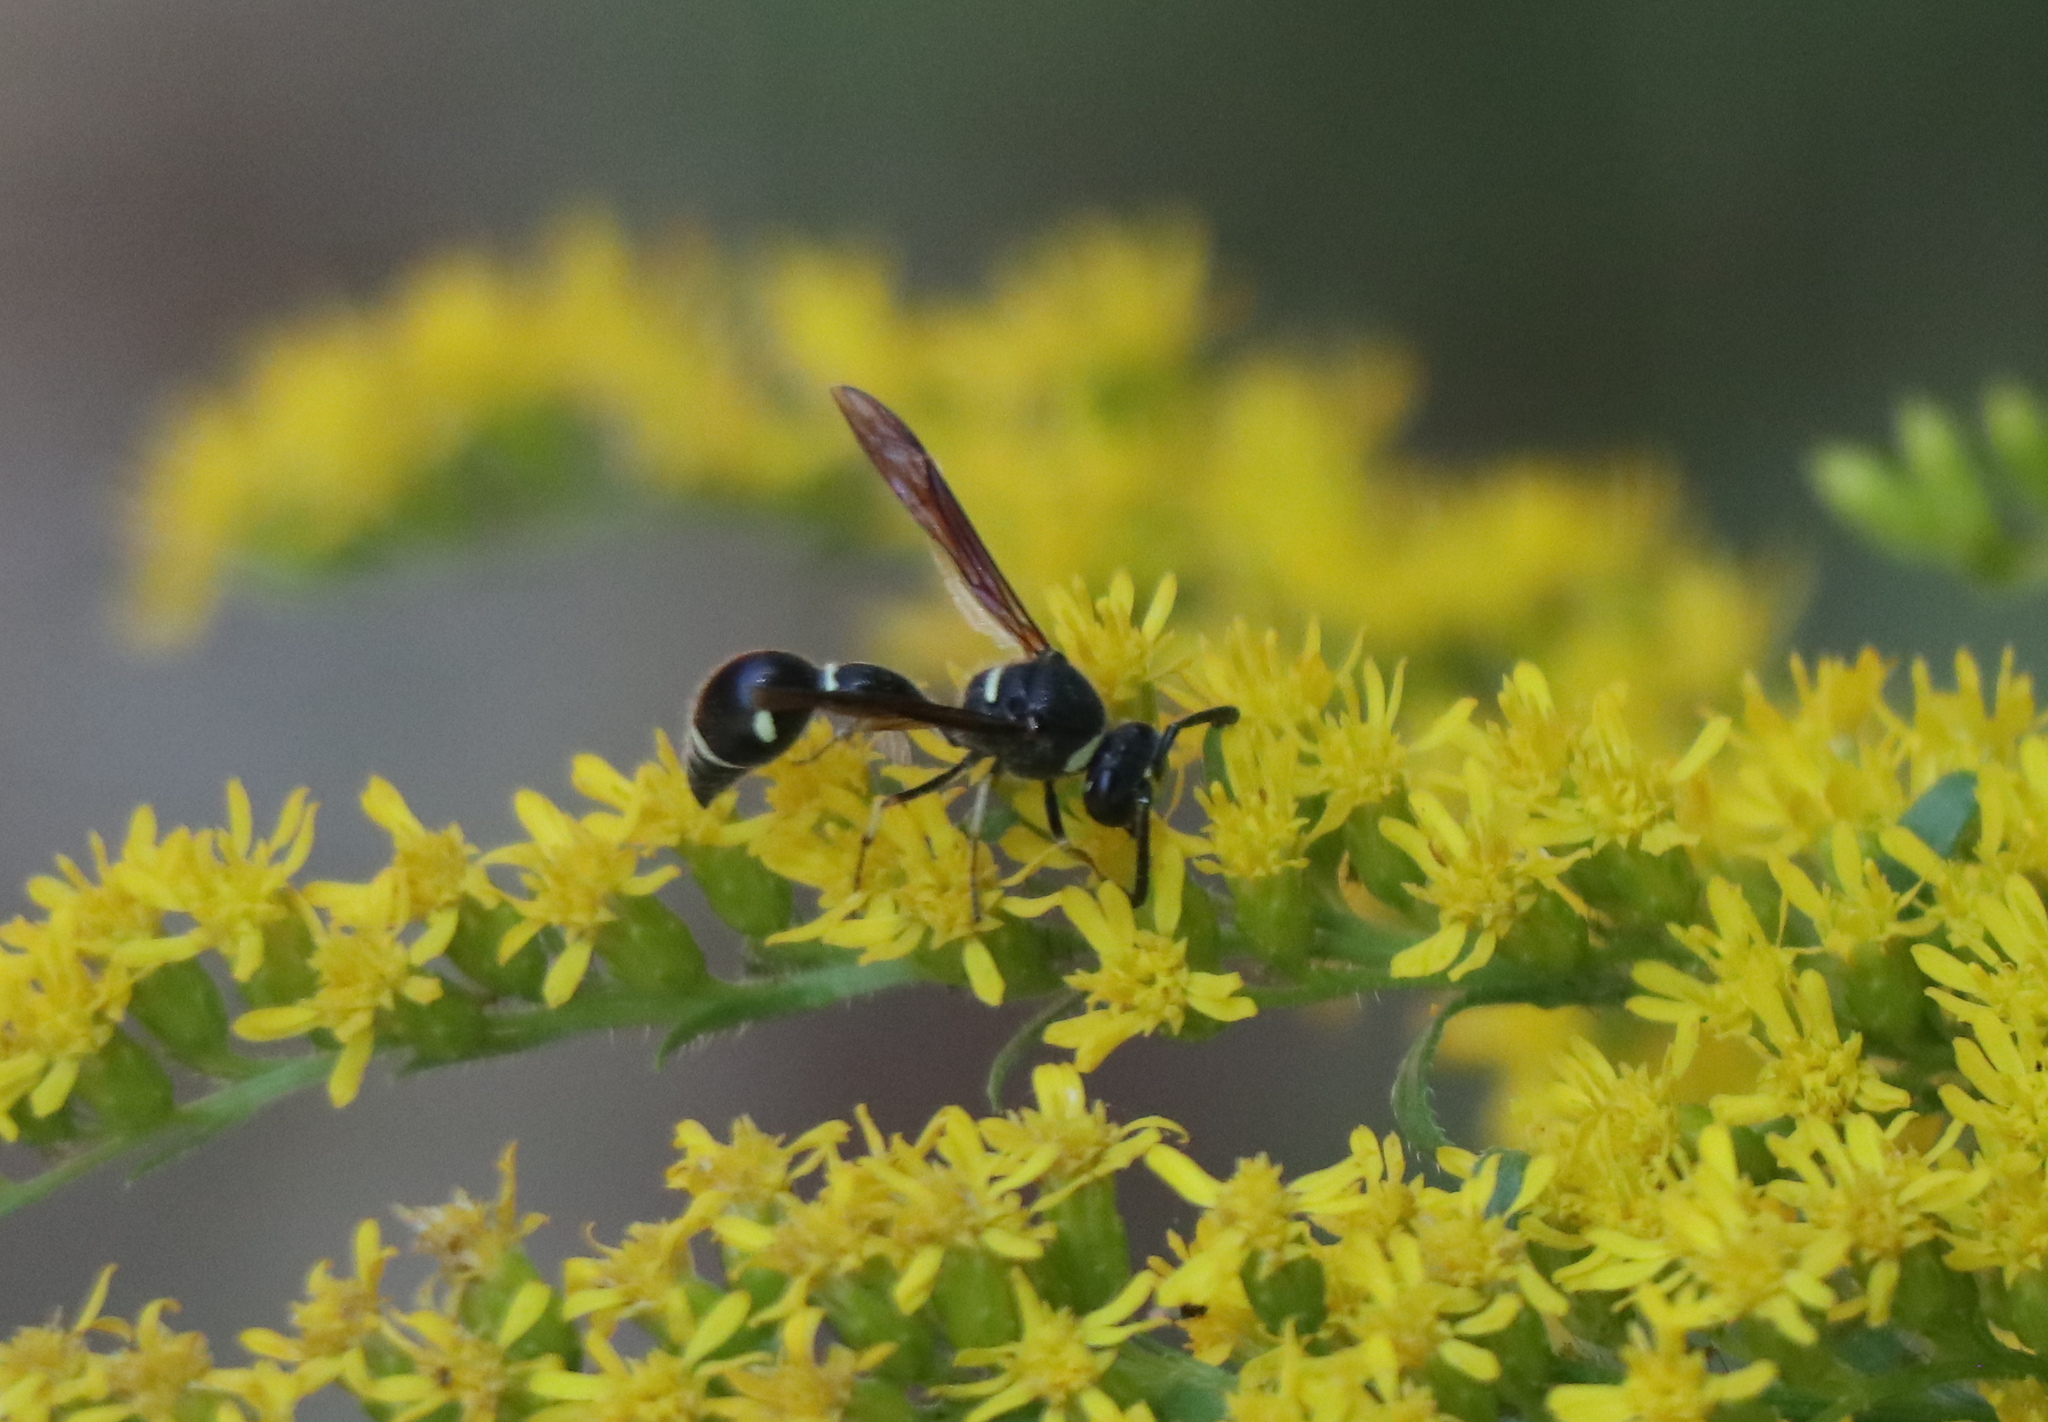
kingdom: Animalia
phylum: Arthropoda
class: Insecta
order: Hymenoptera
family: Vespidae
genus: Eumenes
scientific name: Eumenes fraternus
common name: Fraternal potter wasp
